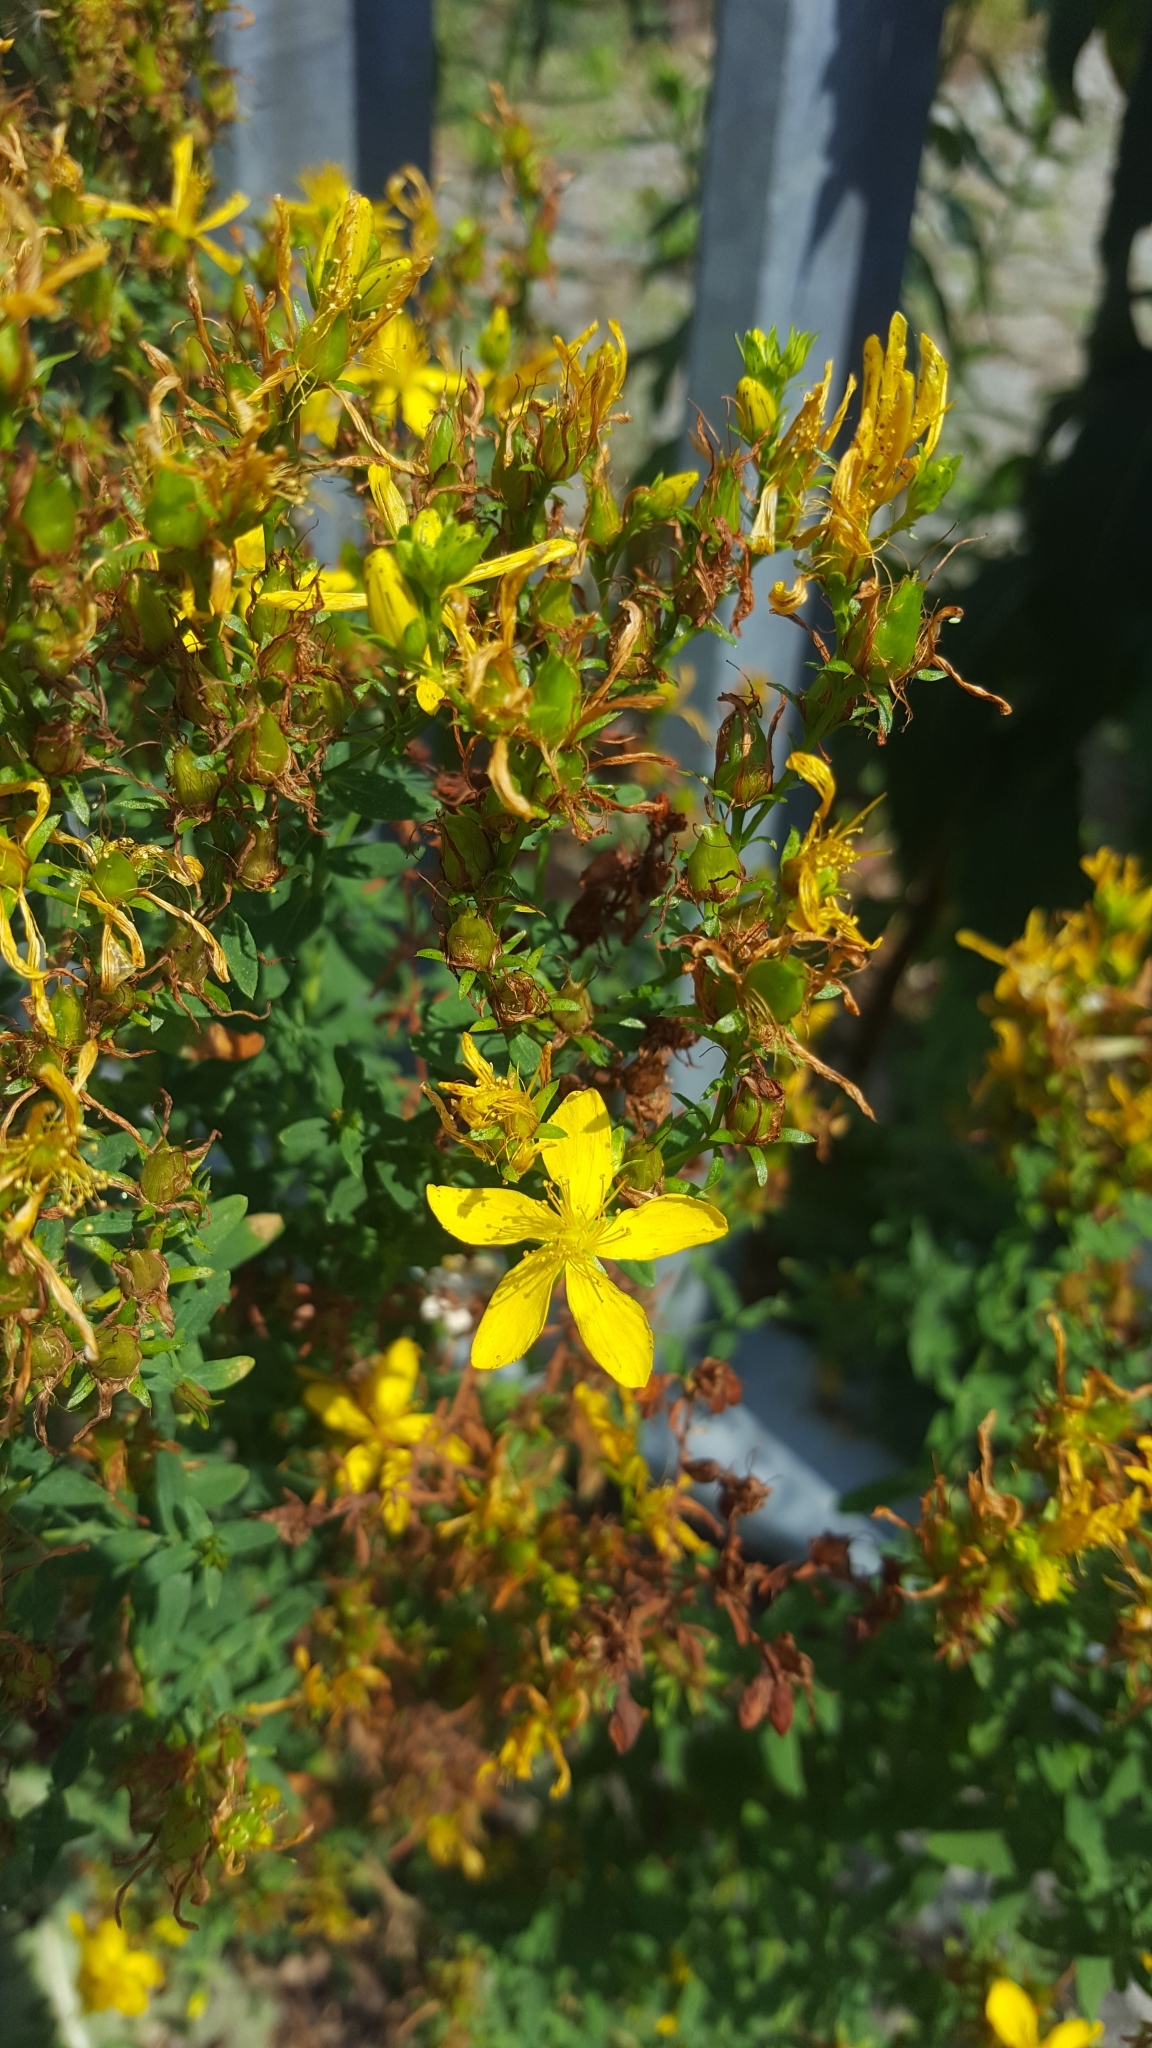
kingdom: Plantae
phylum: Tracheophyta
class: Magnoliopsida
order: Malpighiales
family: Hypericaceae
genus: Hypericum
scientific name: Hypericum perforatum
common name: Common st. johnswort
